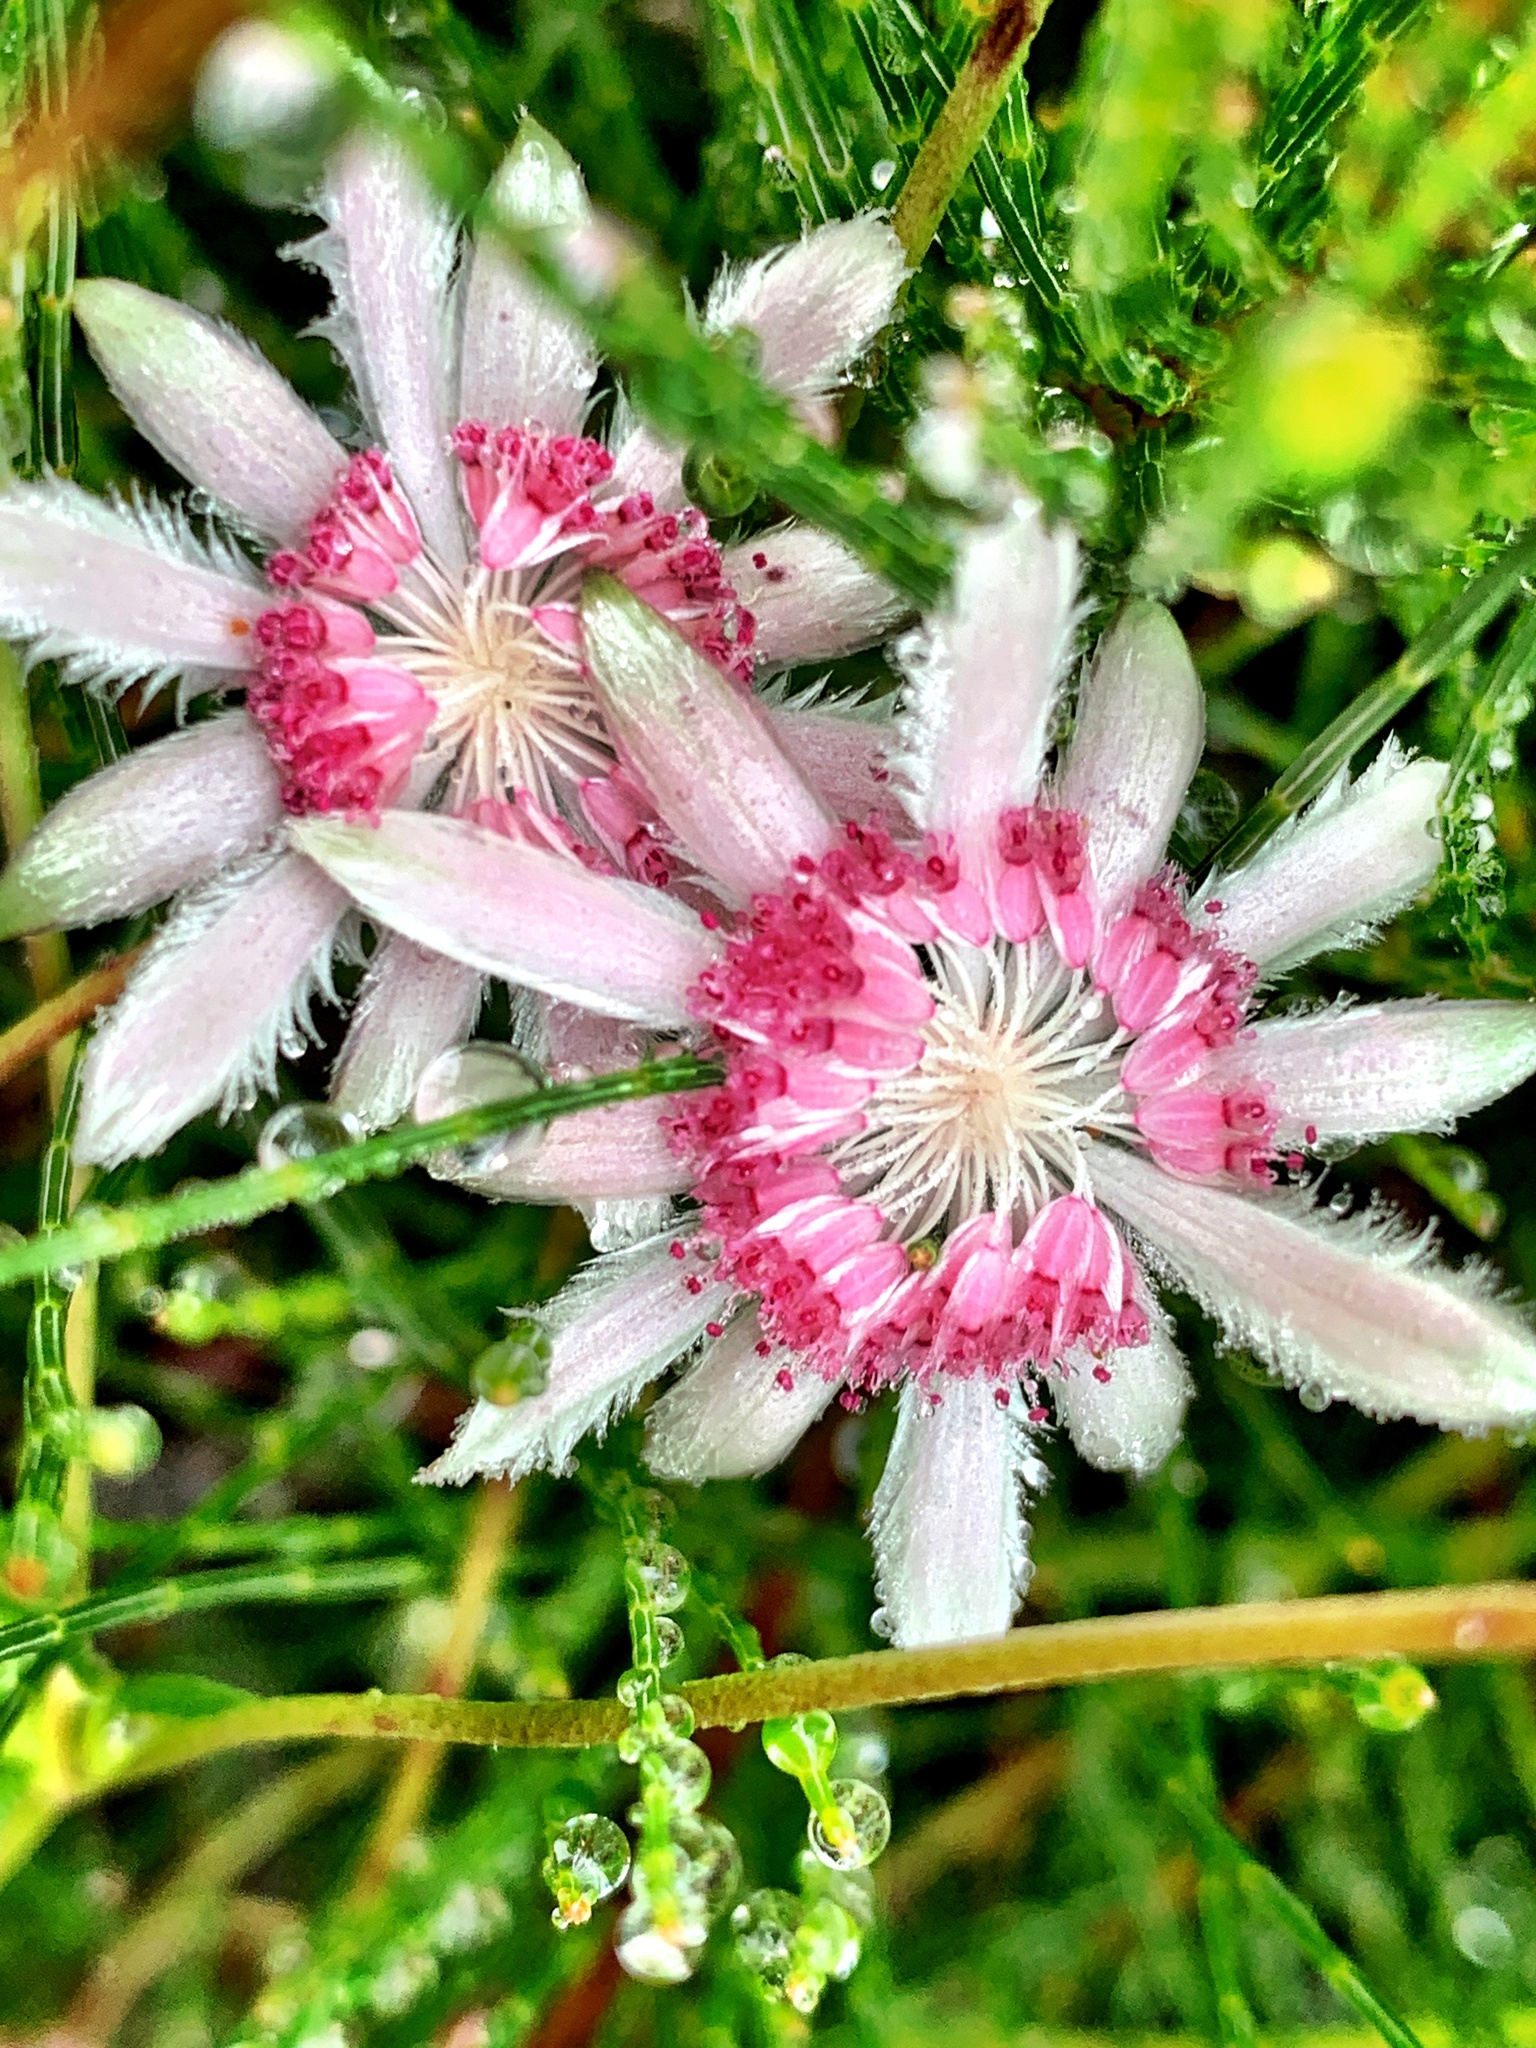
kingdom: Plantae
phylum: Tracheophyta
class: Magnoliopsida
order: Apiales
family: Apiaceae
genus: Actinotus
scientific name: Actinotus forsythii
